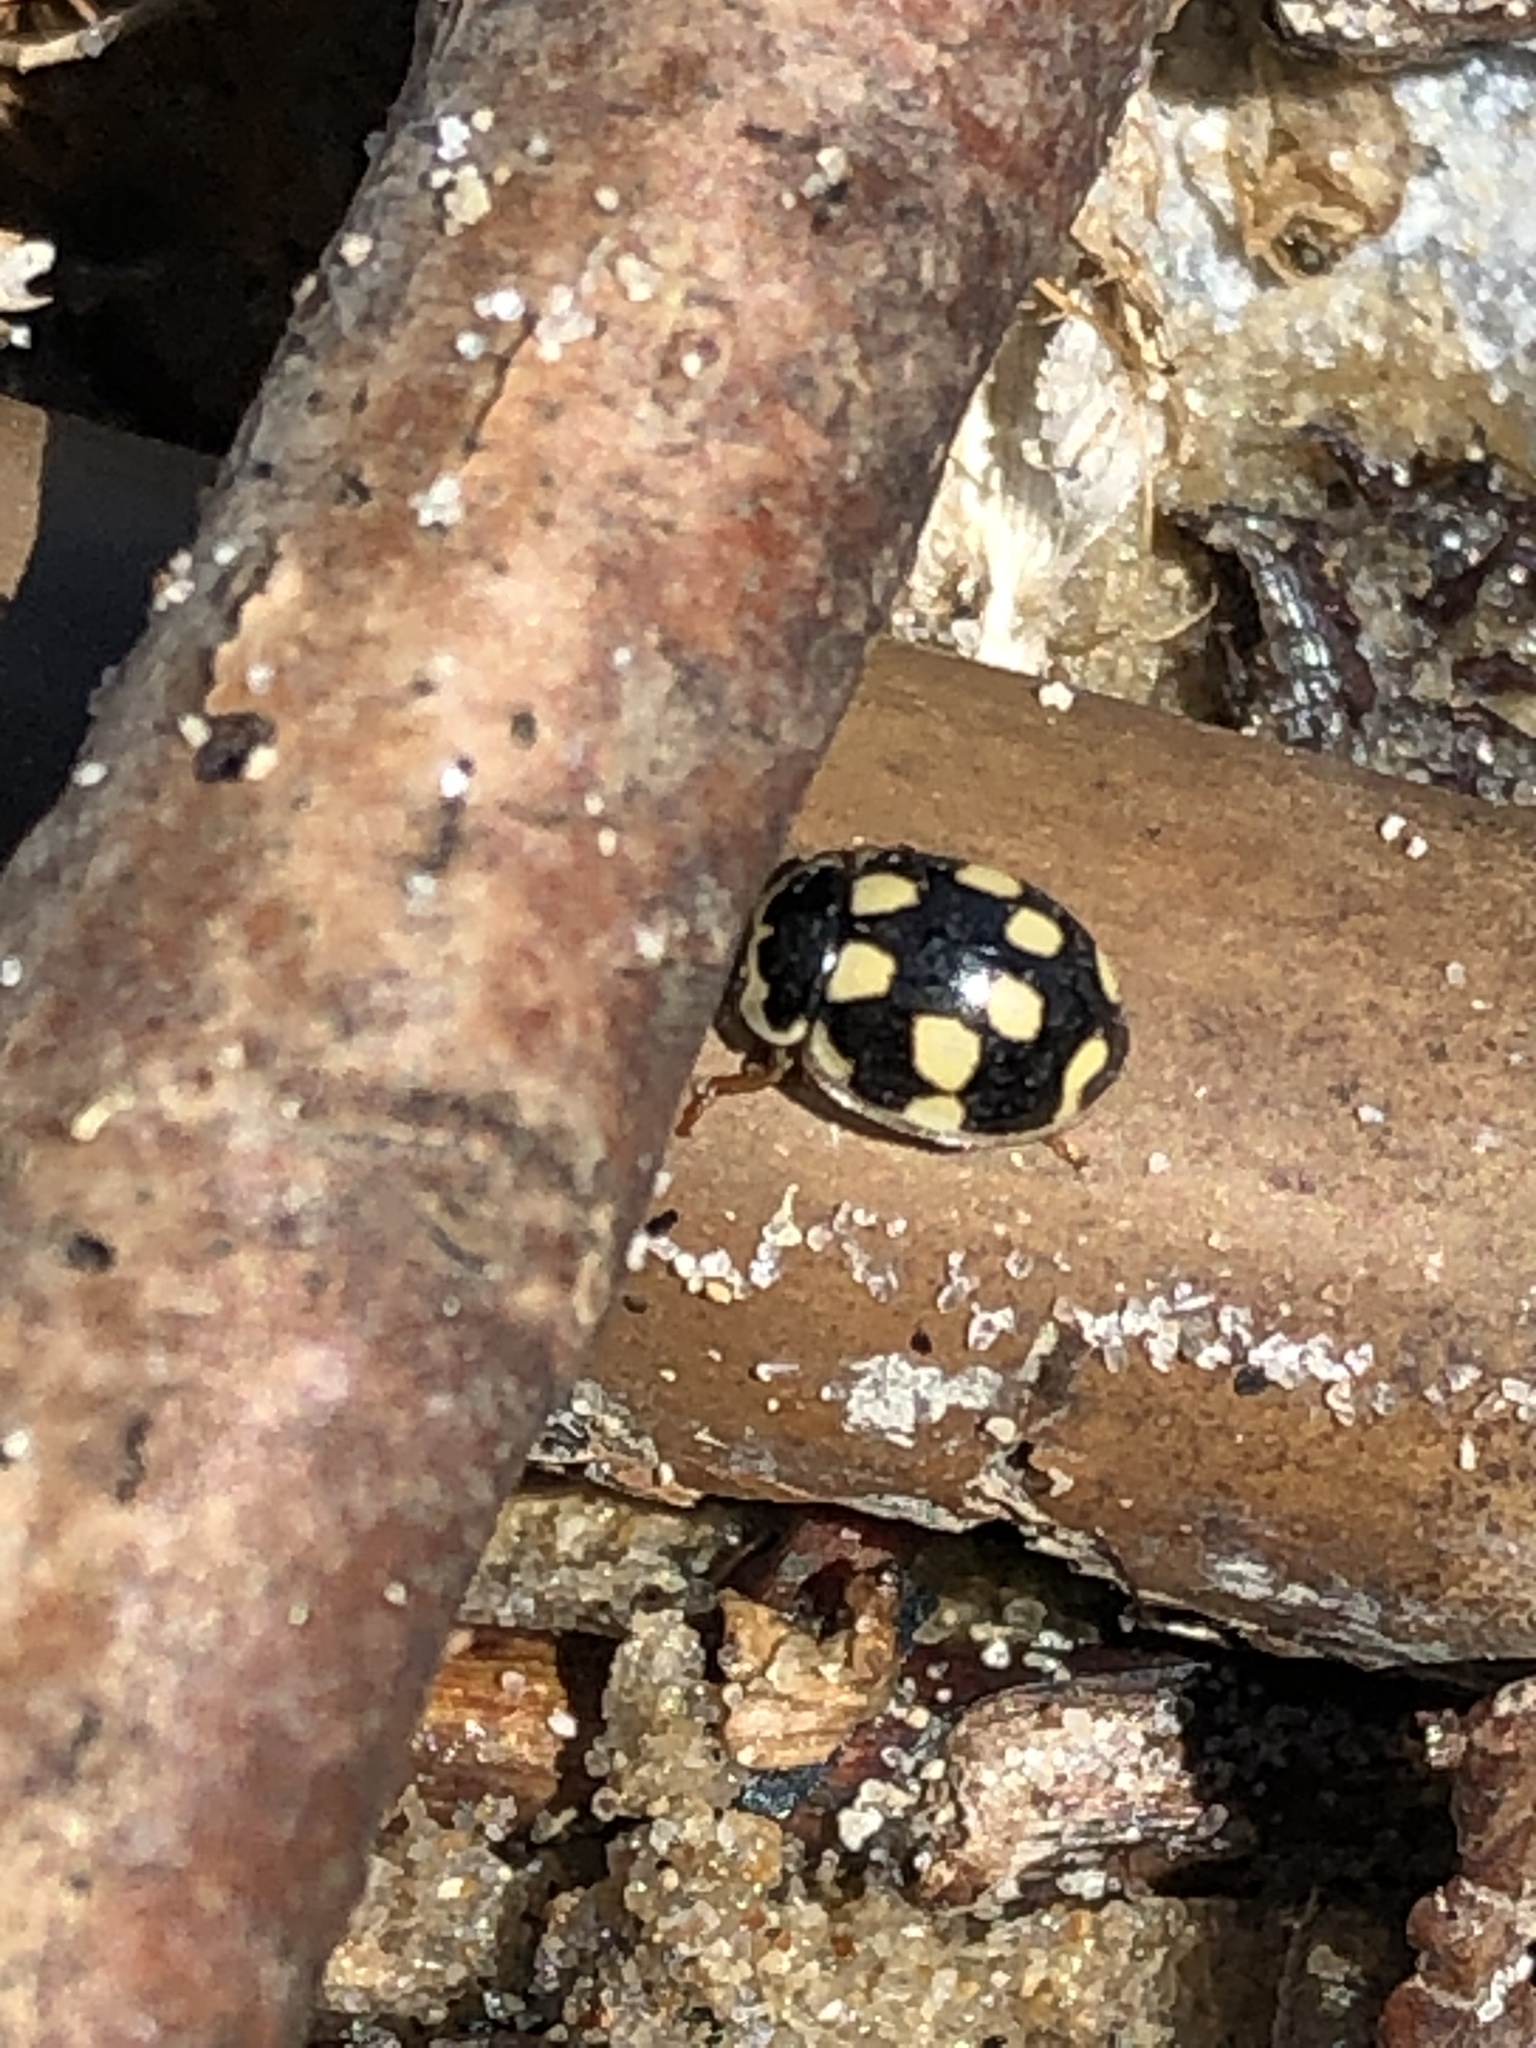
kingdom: Animalia
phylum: Arthropoda
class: Insecta
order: Coleoptera
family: Coccinellidae
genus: Propylaea
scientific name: Propylaea quatuordecimpunctata
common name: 14-spotted ladybird beetle
